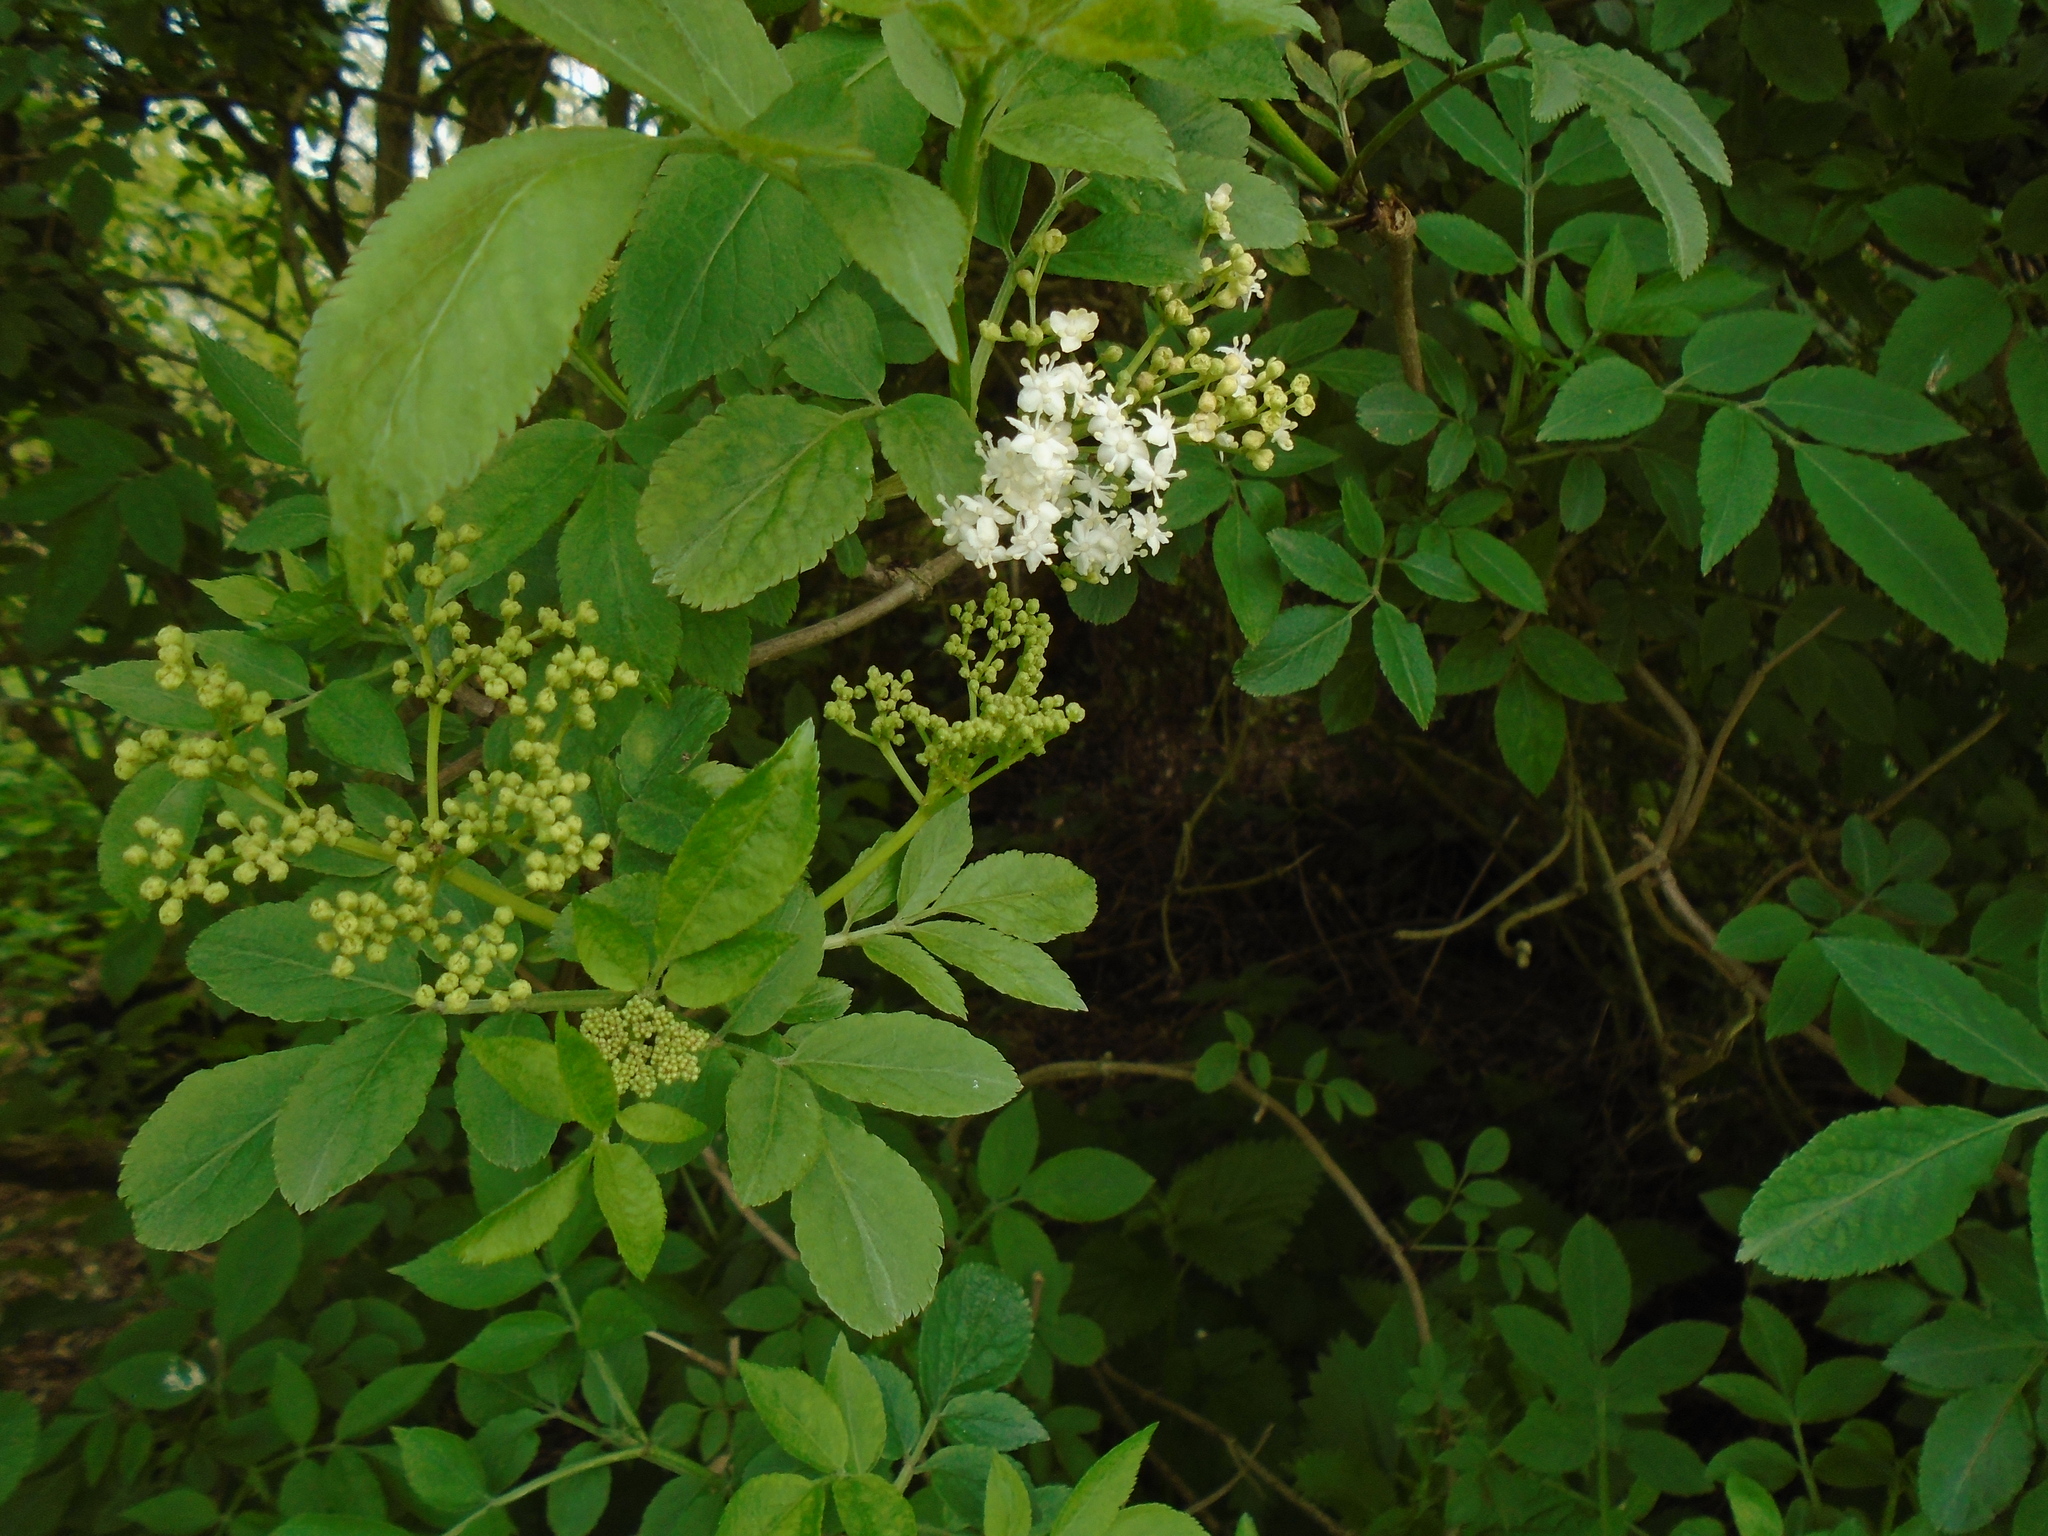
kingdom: Plantae
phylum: Tracheophyta
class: Magnoliopsida
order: Dipsacales
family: Viburnaceae
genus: Sambucus
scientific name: Sambucus nigra
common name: Elder
